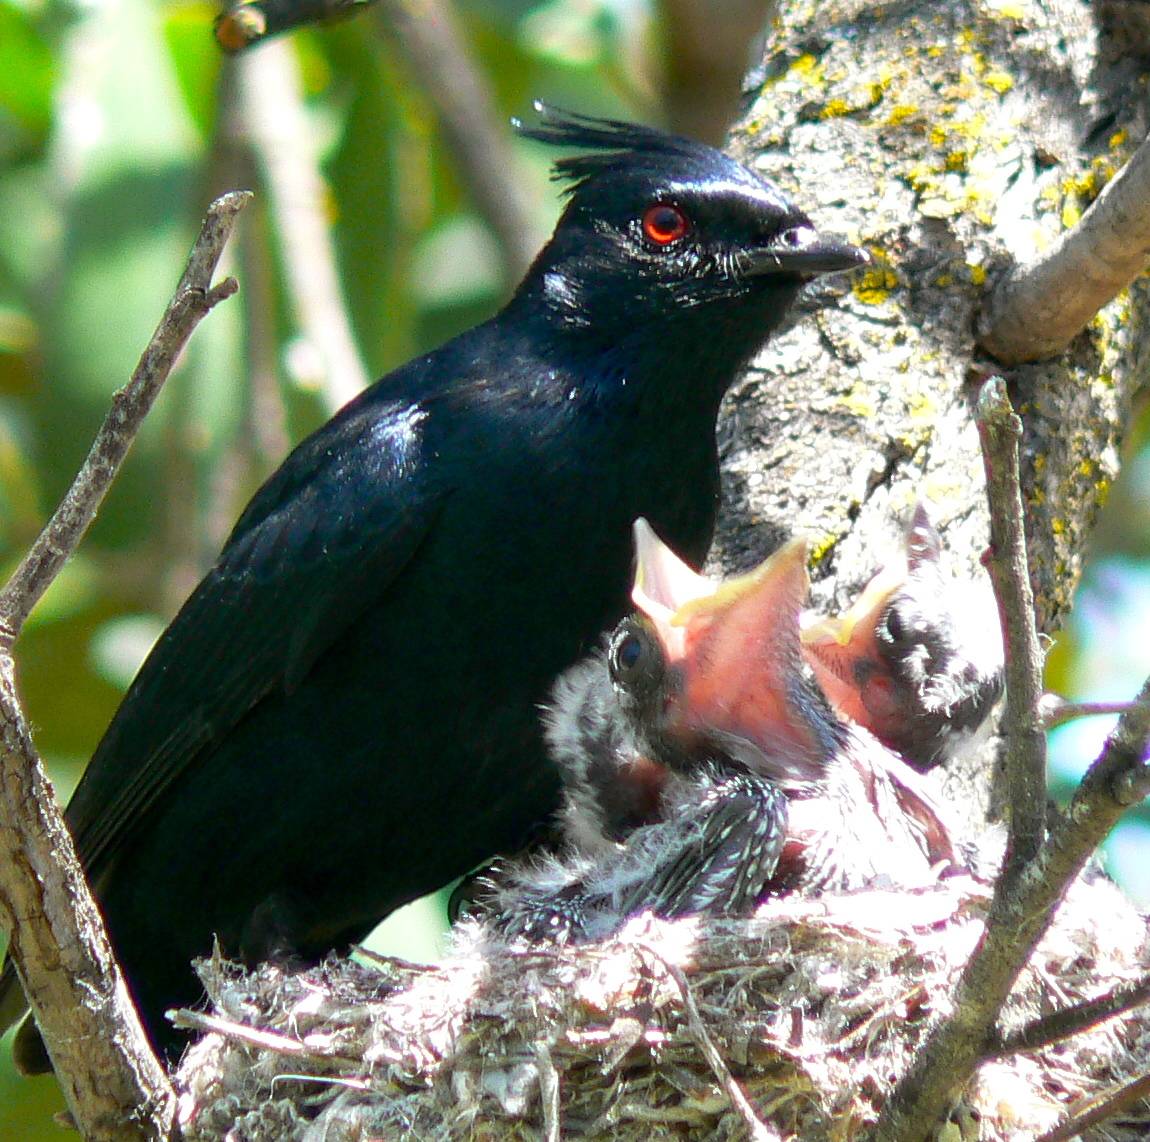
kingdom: Animalia
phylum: Chordata
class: Aves
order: Passeriformes
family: Ptilogonatidae
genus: Phainopepla
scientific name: Phainopepla nitens
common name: Phainopepla
